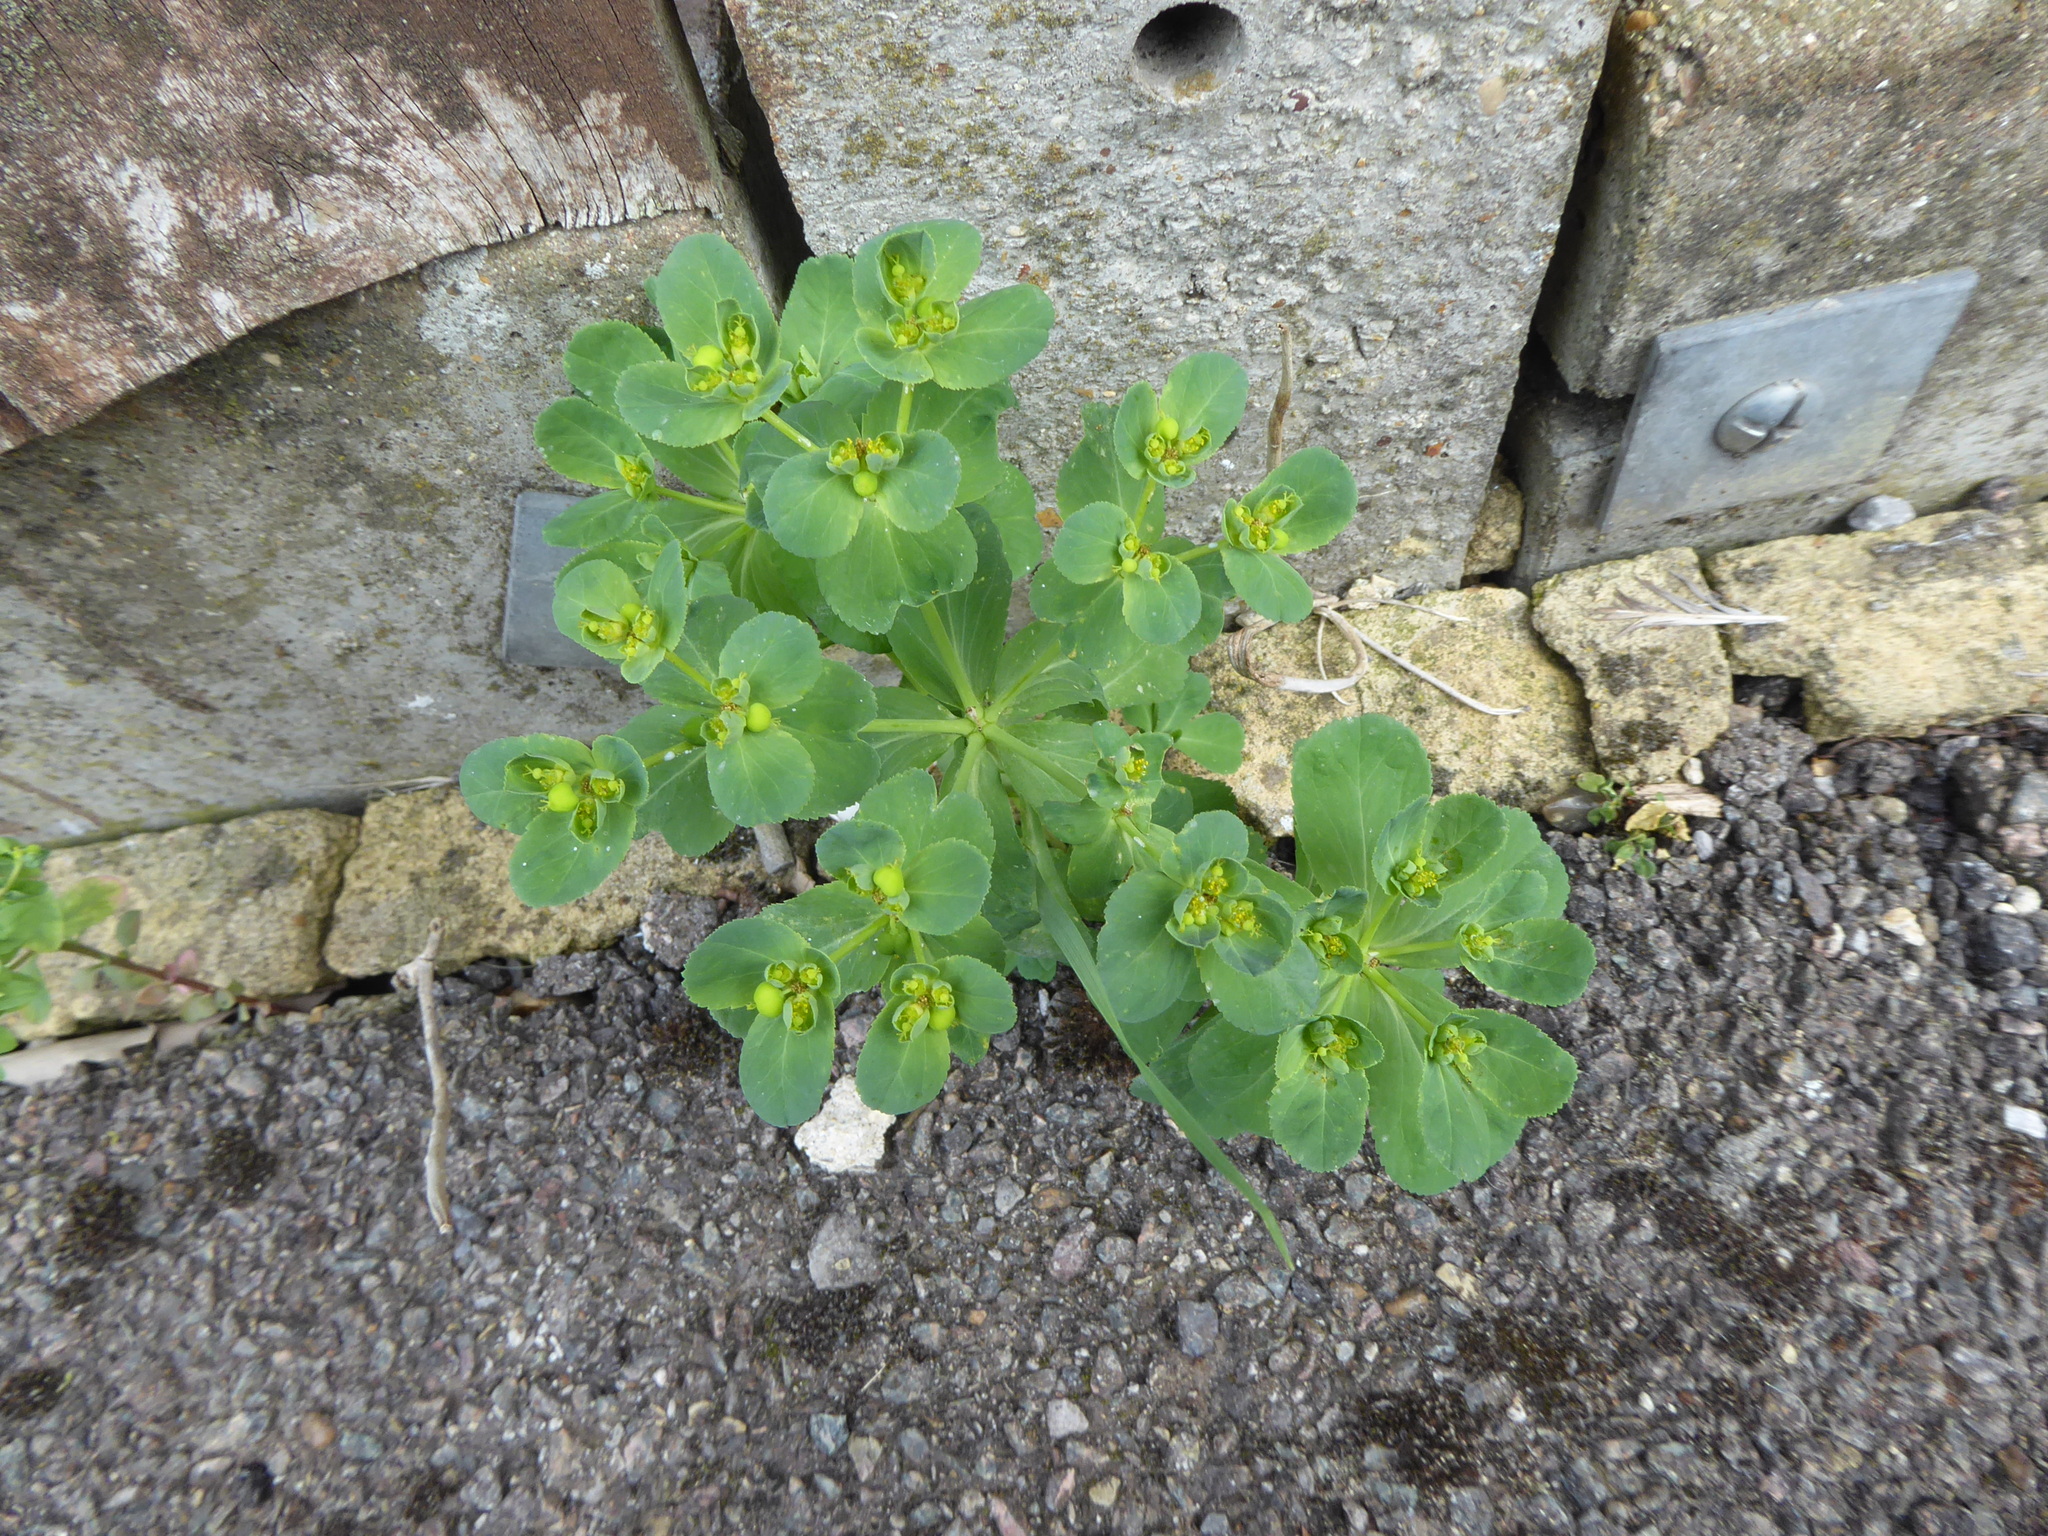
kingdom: Plantae
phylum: Tracheophyta
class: Magnoliopsida
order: Malpighiales
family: Euphorbiaceae
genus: Euphorbia
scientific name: Euphorbia helioscopia
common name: Sun spurge
